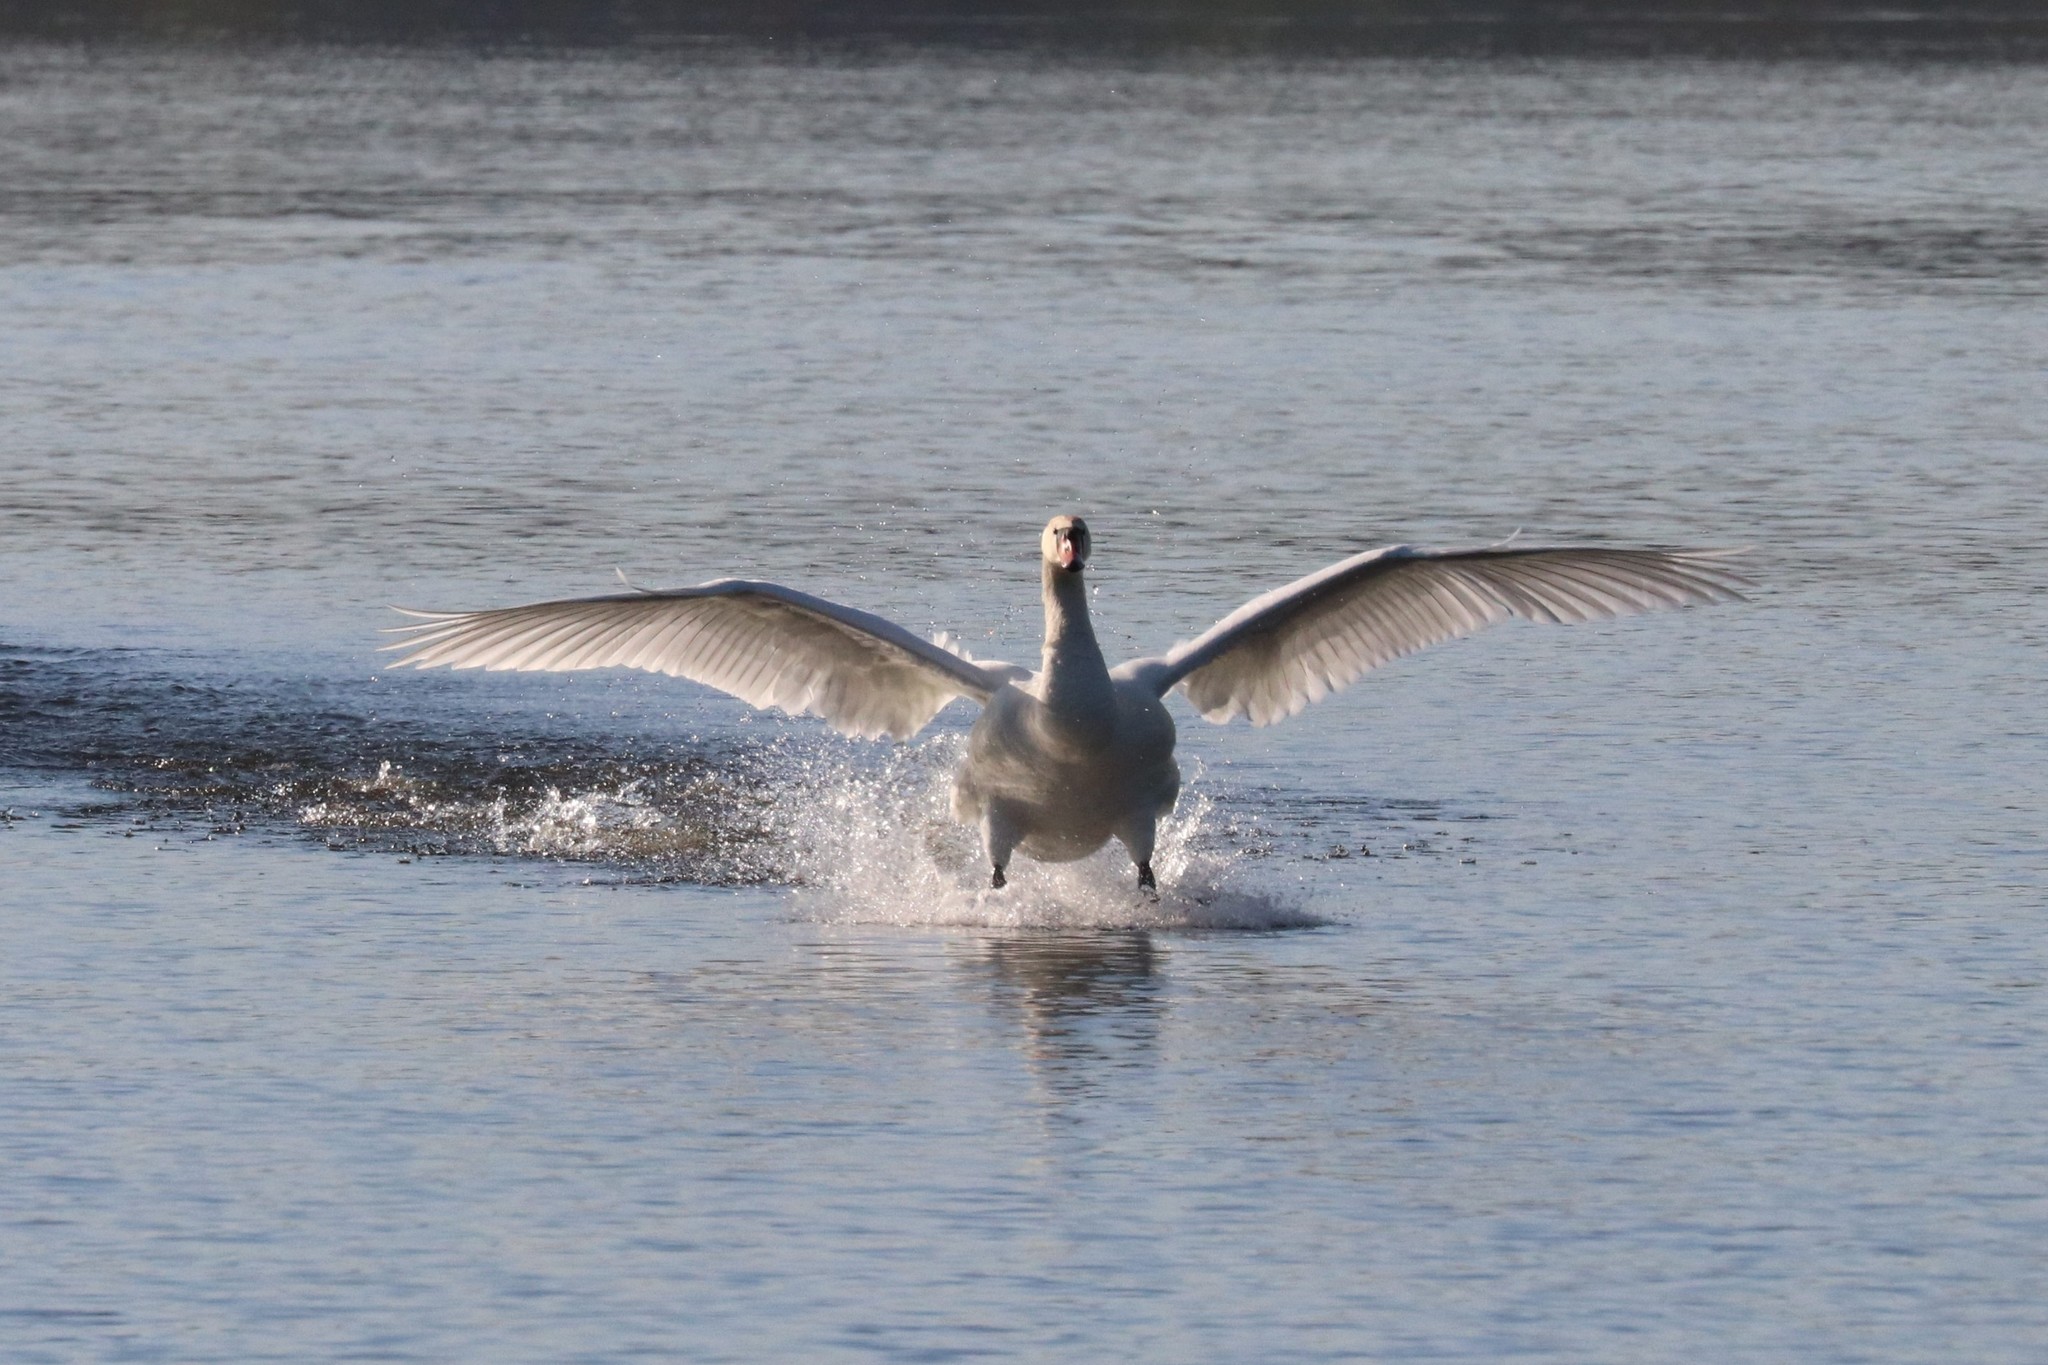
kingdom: Animalia
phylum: Chordata
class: Aves
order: Anseriformes
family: Anatidae
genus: Cygnus
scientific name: Cygnus olor
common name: Mute swan
